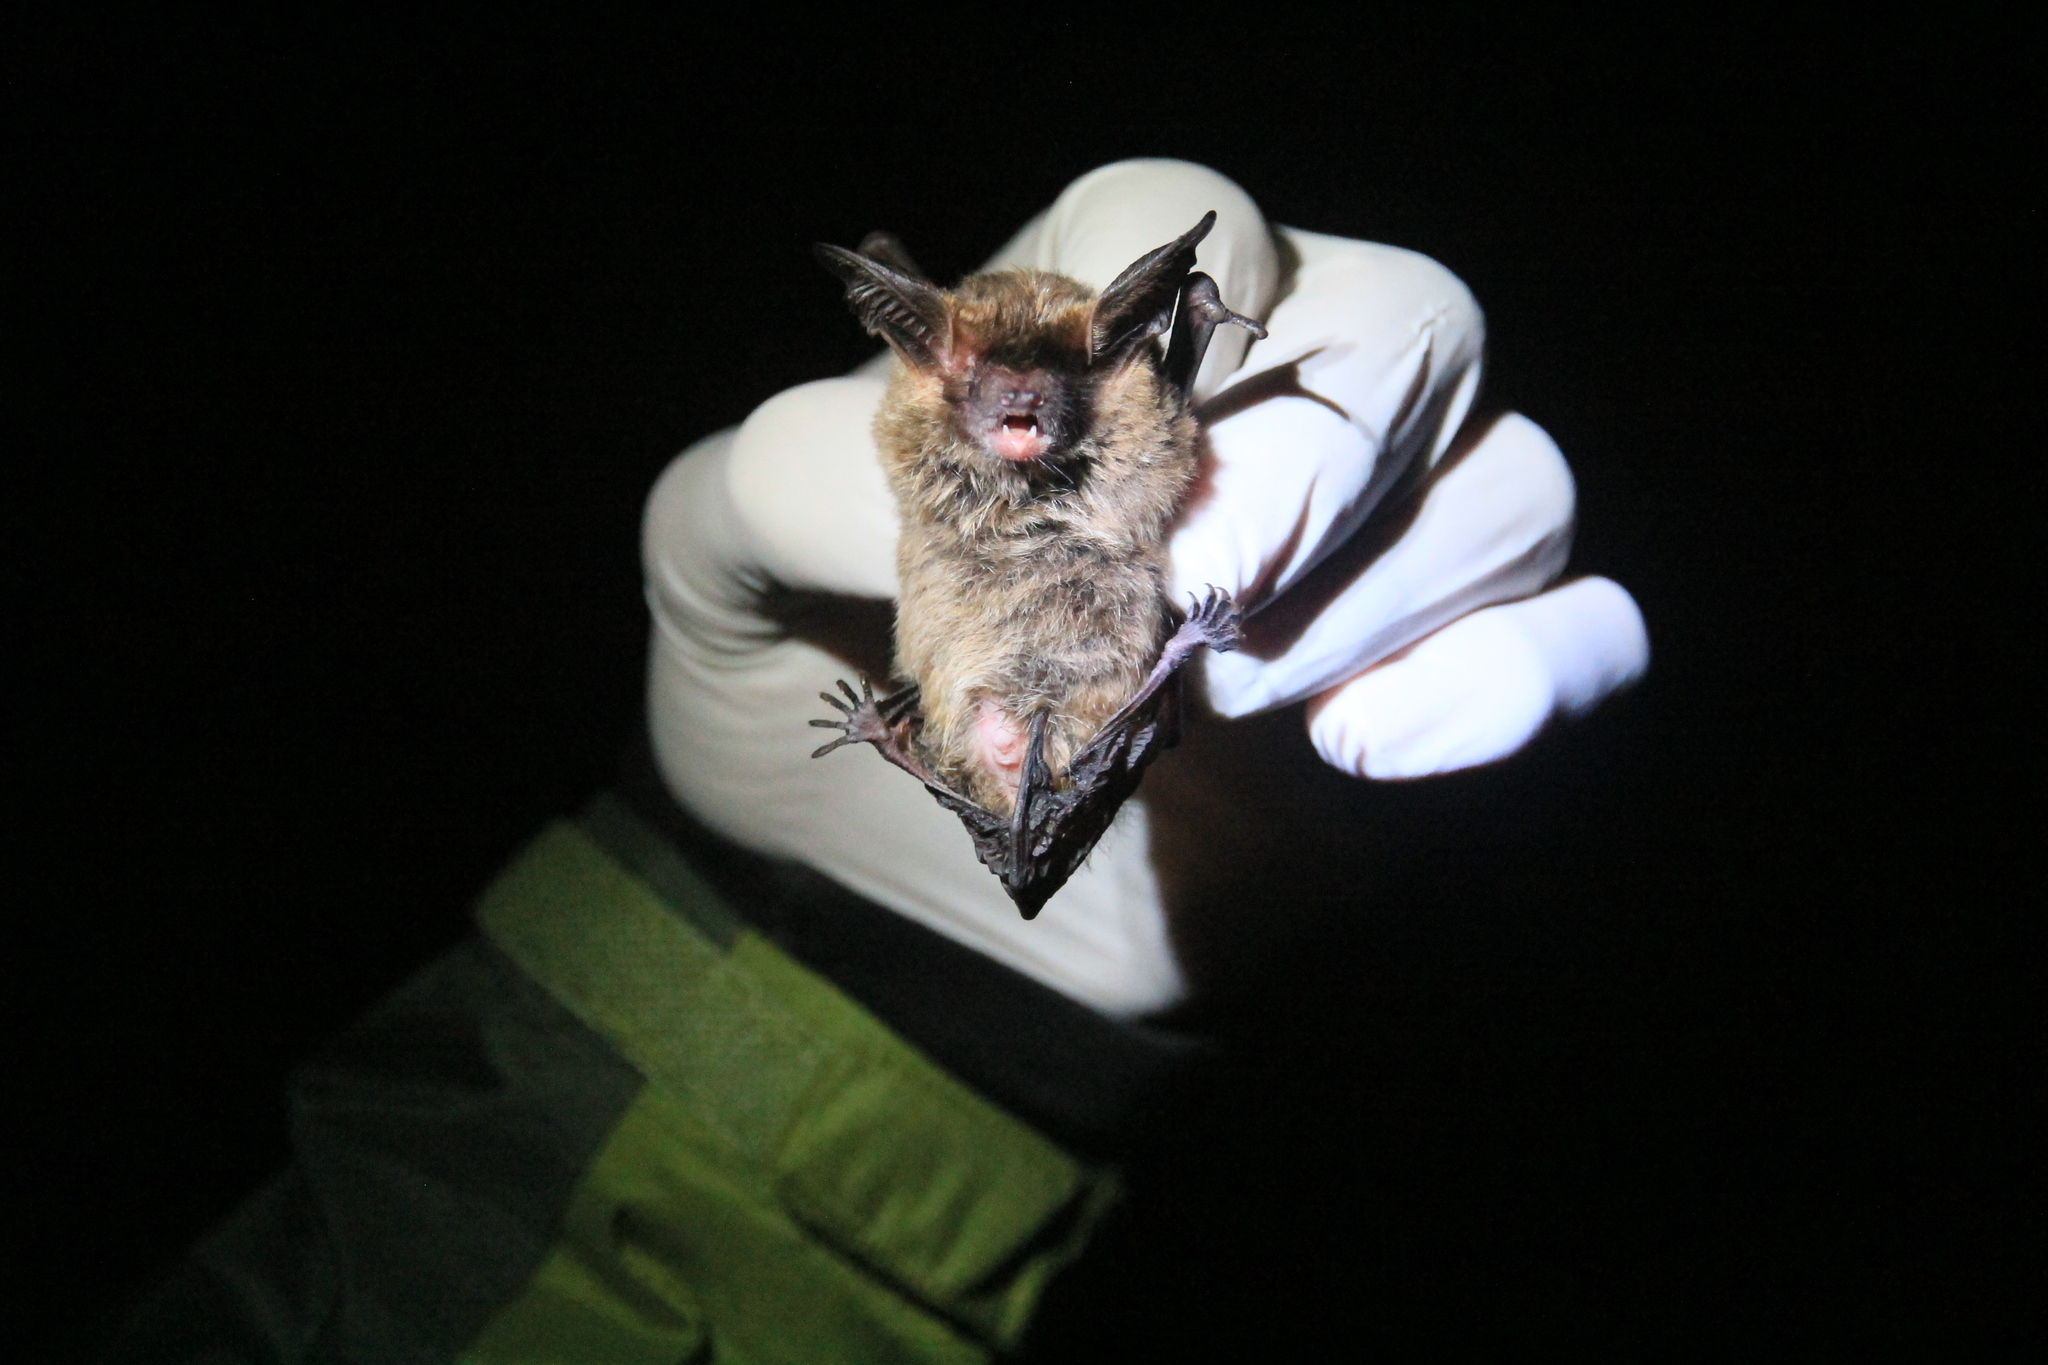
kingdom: Animalia
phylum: Chordata
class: Mammalia
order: Chiroptera
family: Vespertilionidae
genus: Histiotus
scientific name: Histiotus magellanicus
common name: Southern big-eared brown bat
